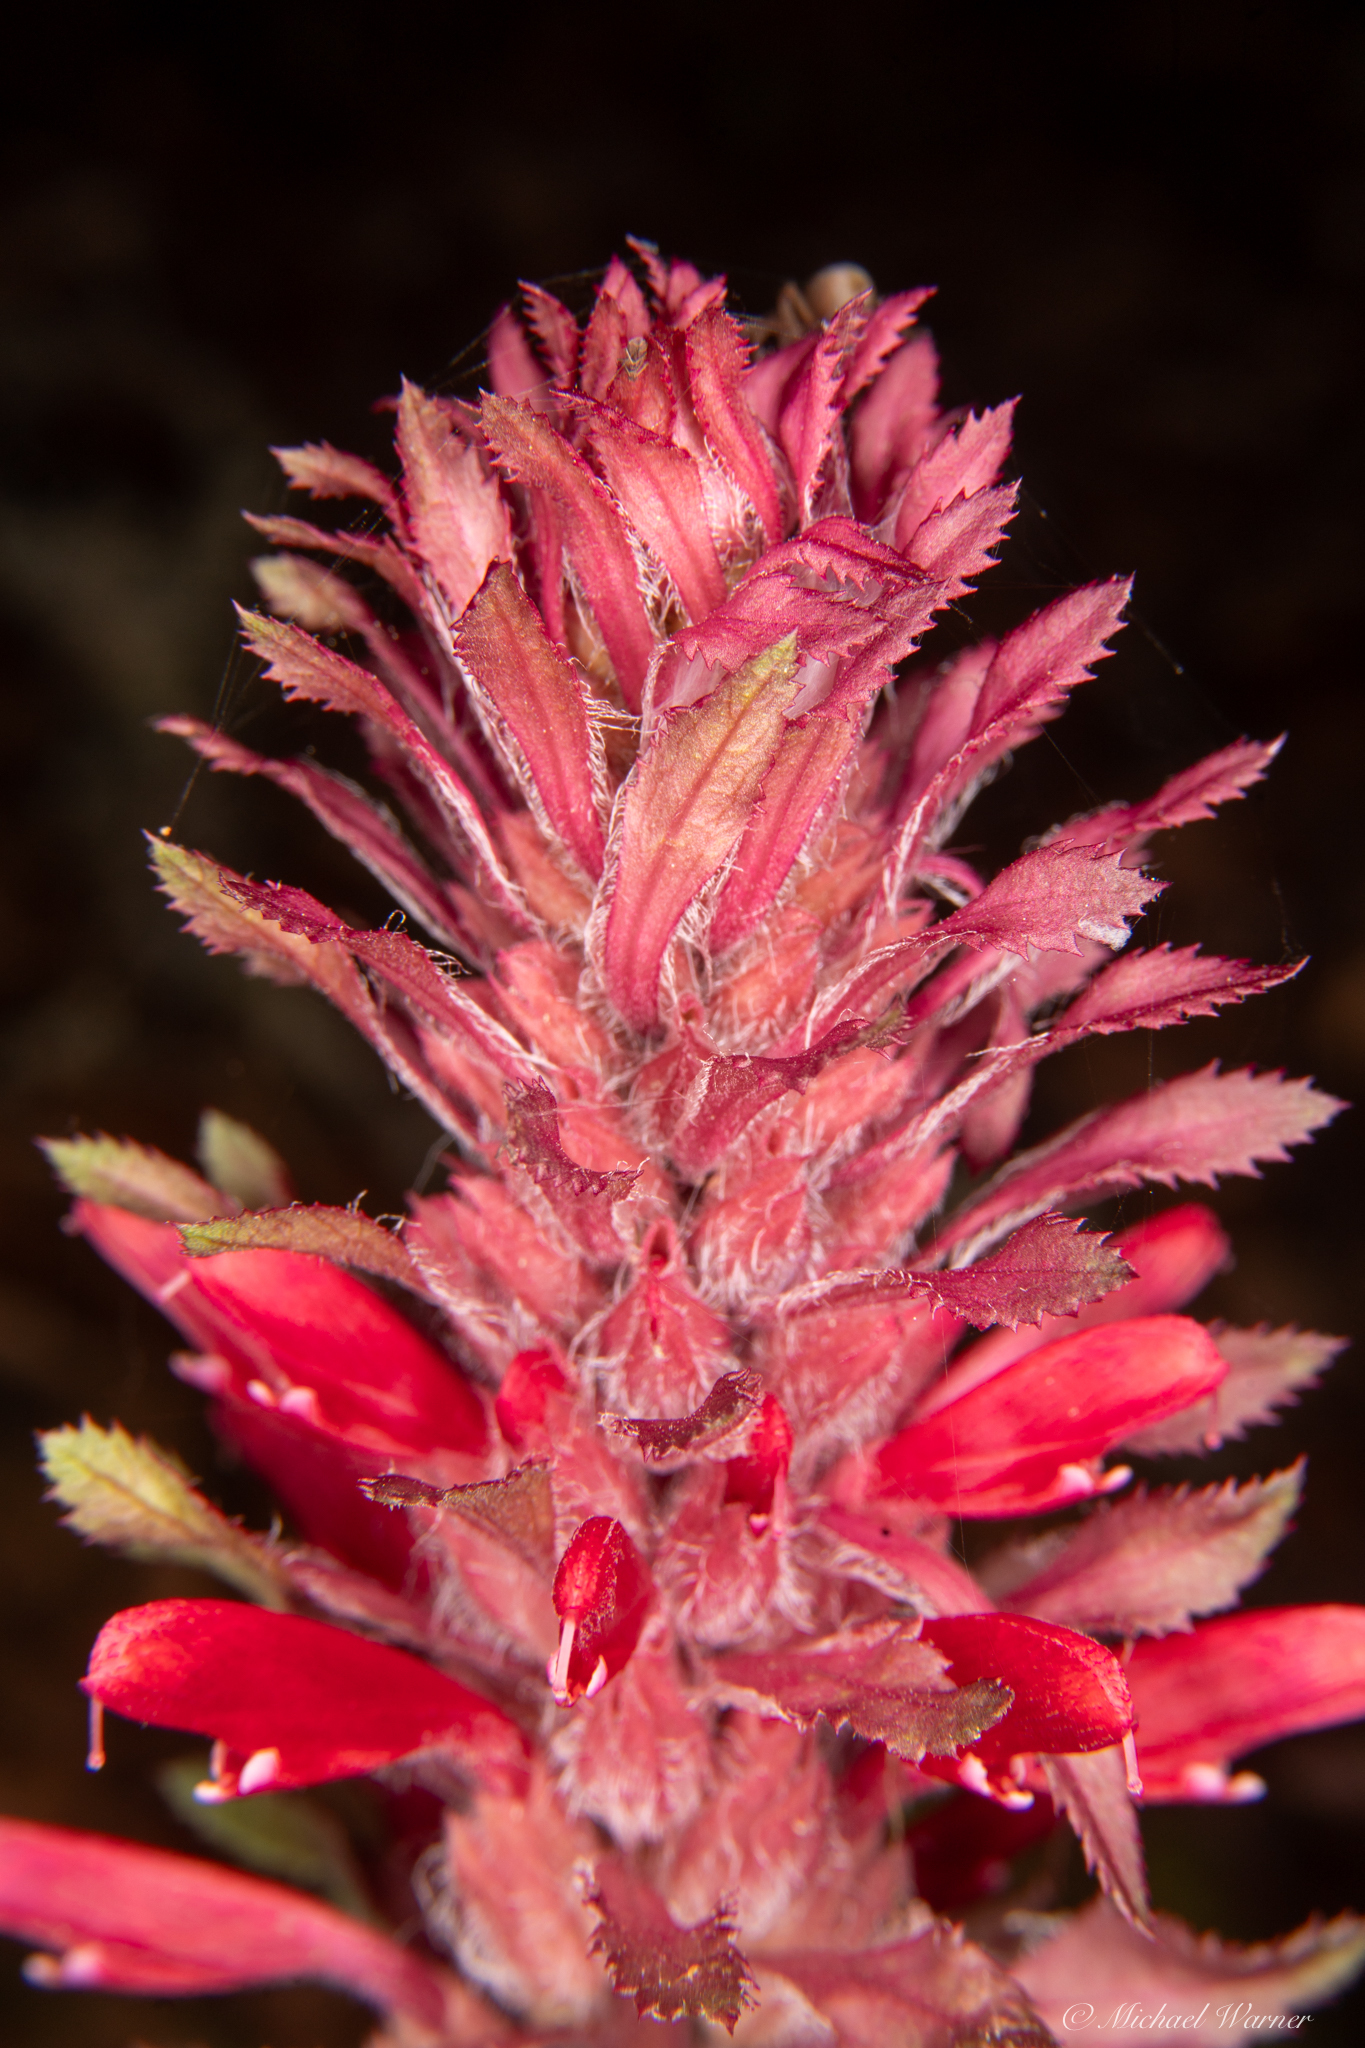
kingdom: Plantae
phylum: Tracheophyta
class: Magnoliopsida
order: Lamiales
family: Orobanchaceae
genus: Pedicularis
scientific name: Pedicularis densiflora
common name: Indian warrior
